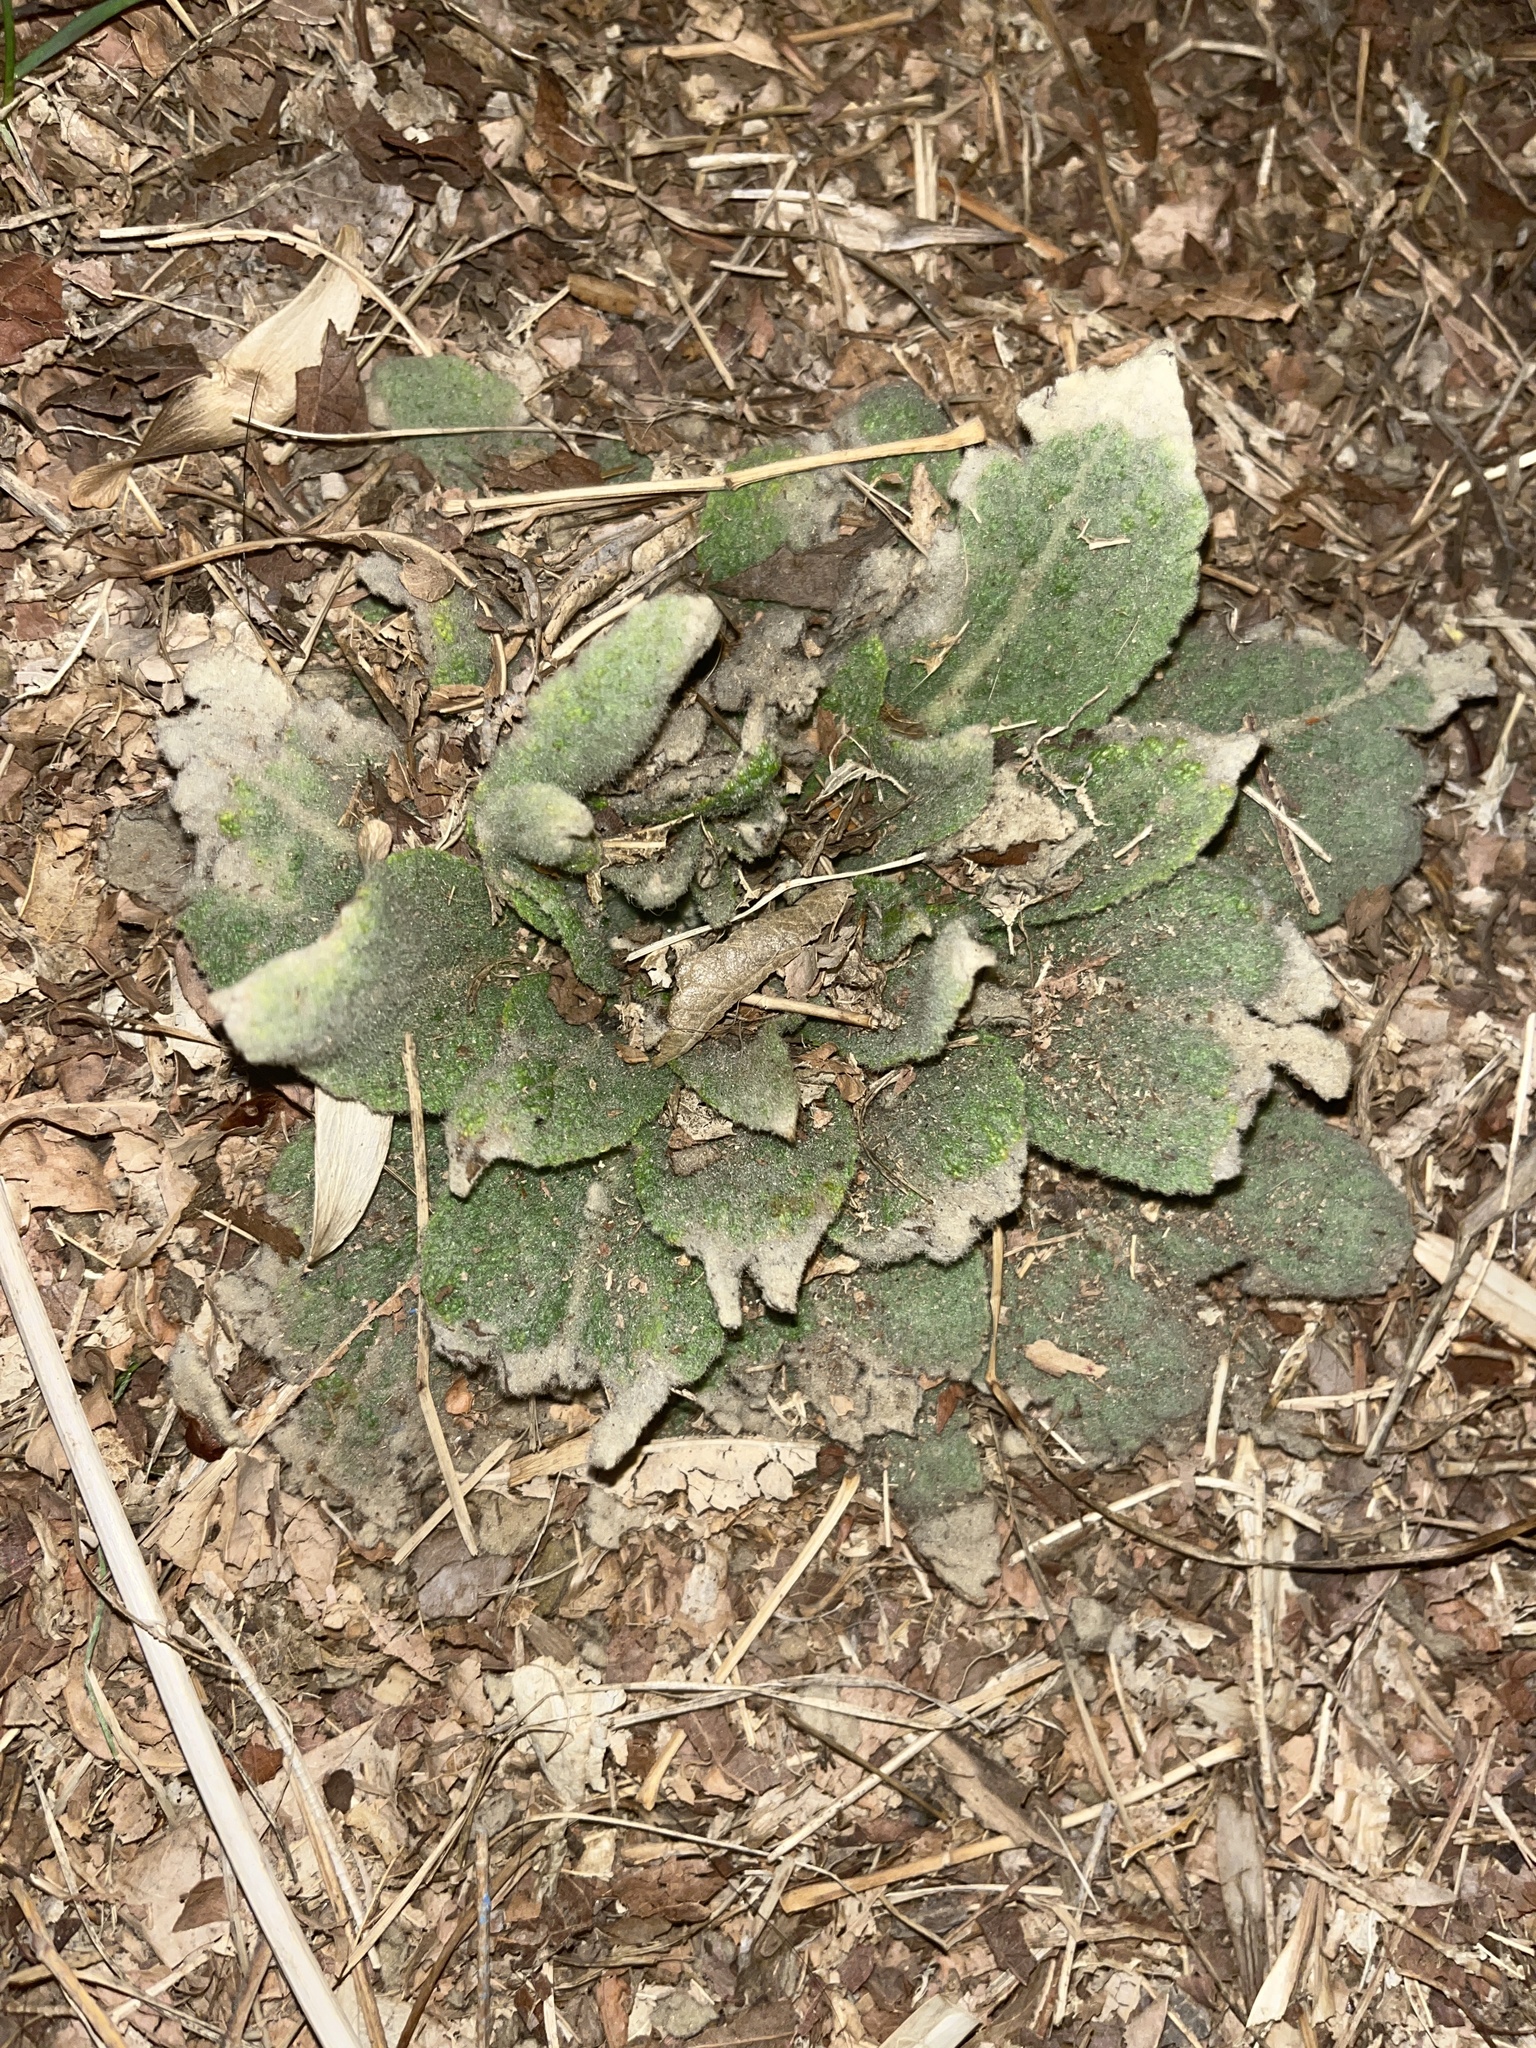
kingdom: Plantae
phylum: Tracheophyta
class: Magnoliopsida
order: Lamiales
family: Scrophulariaceae
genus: Verbascum
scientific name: Verbascum thapsus
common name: Common mullein
